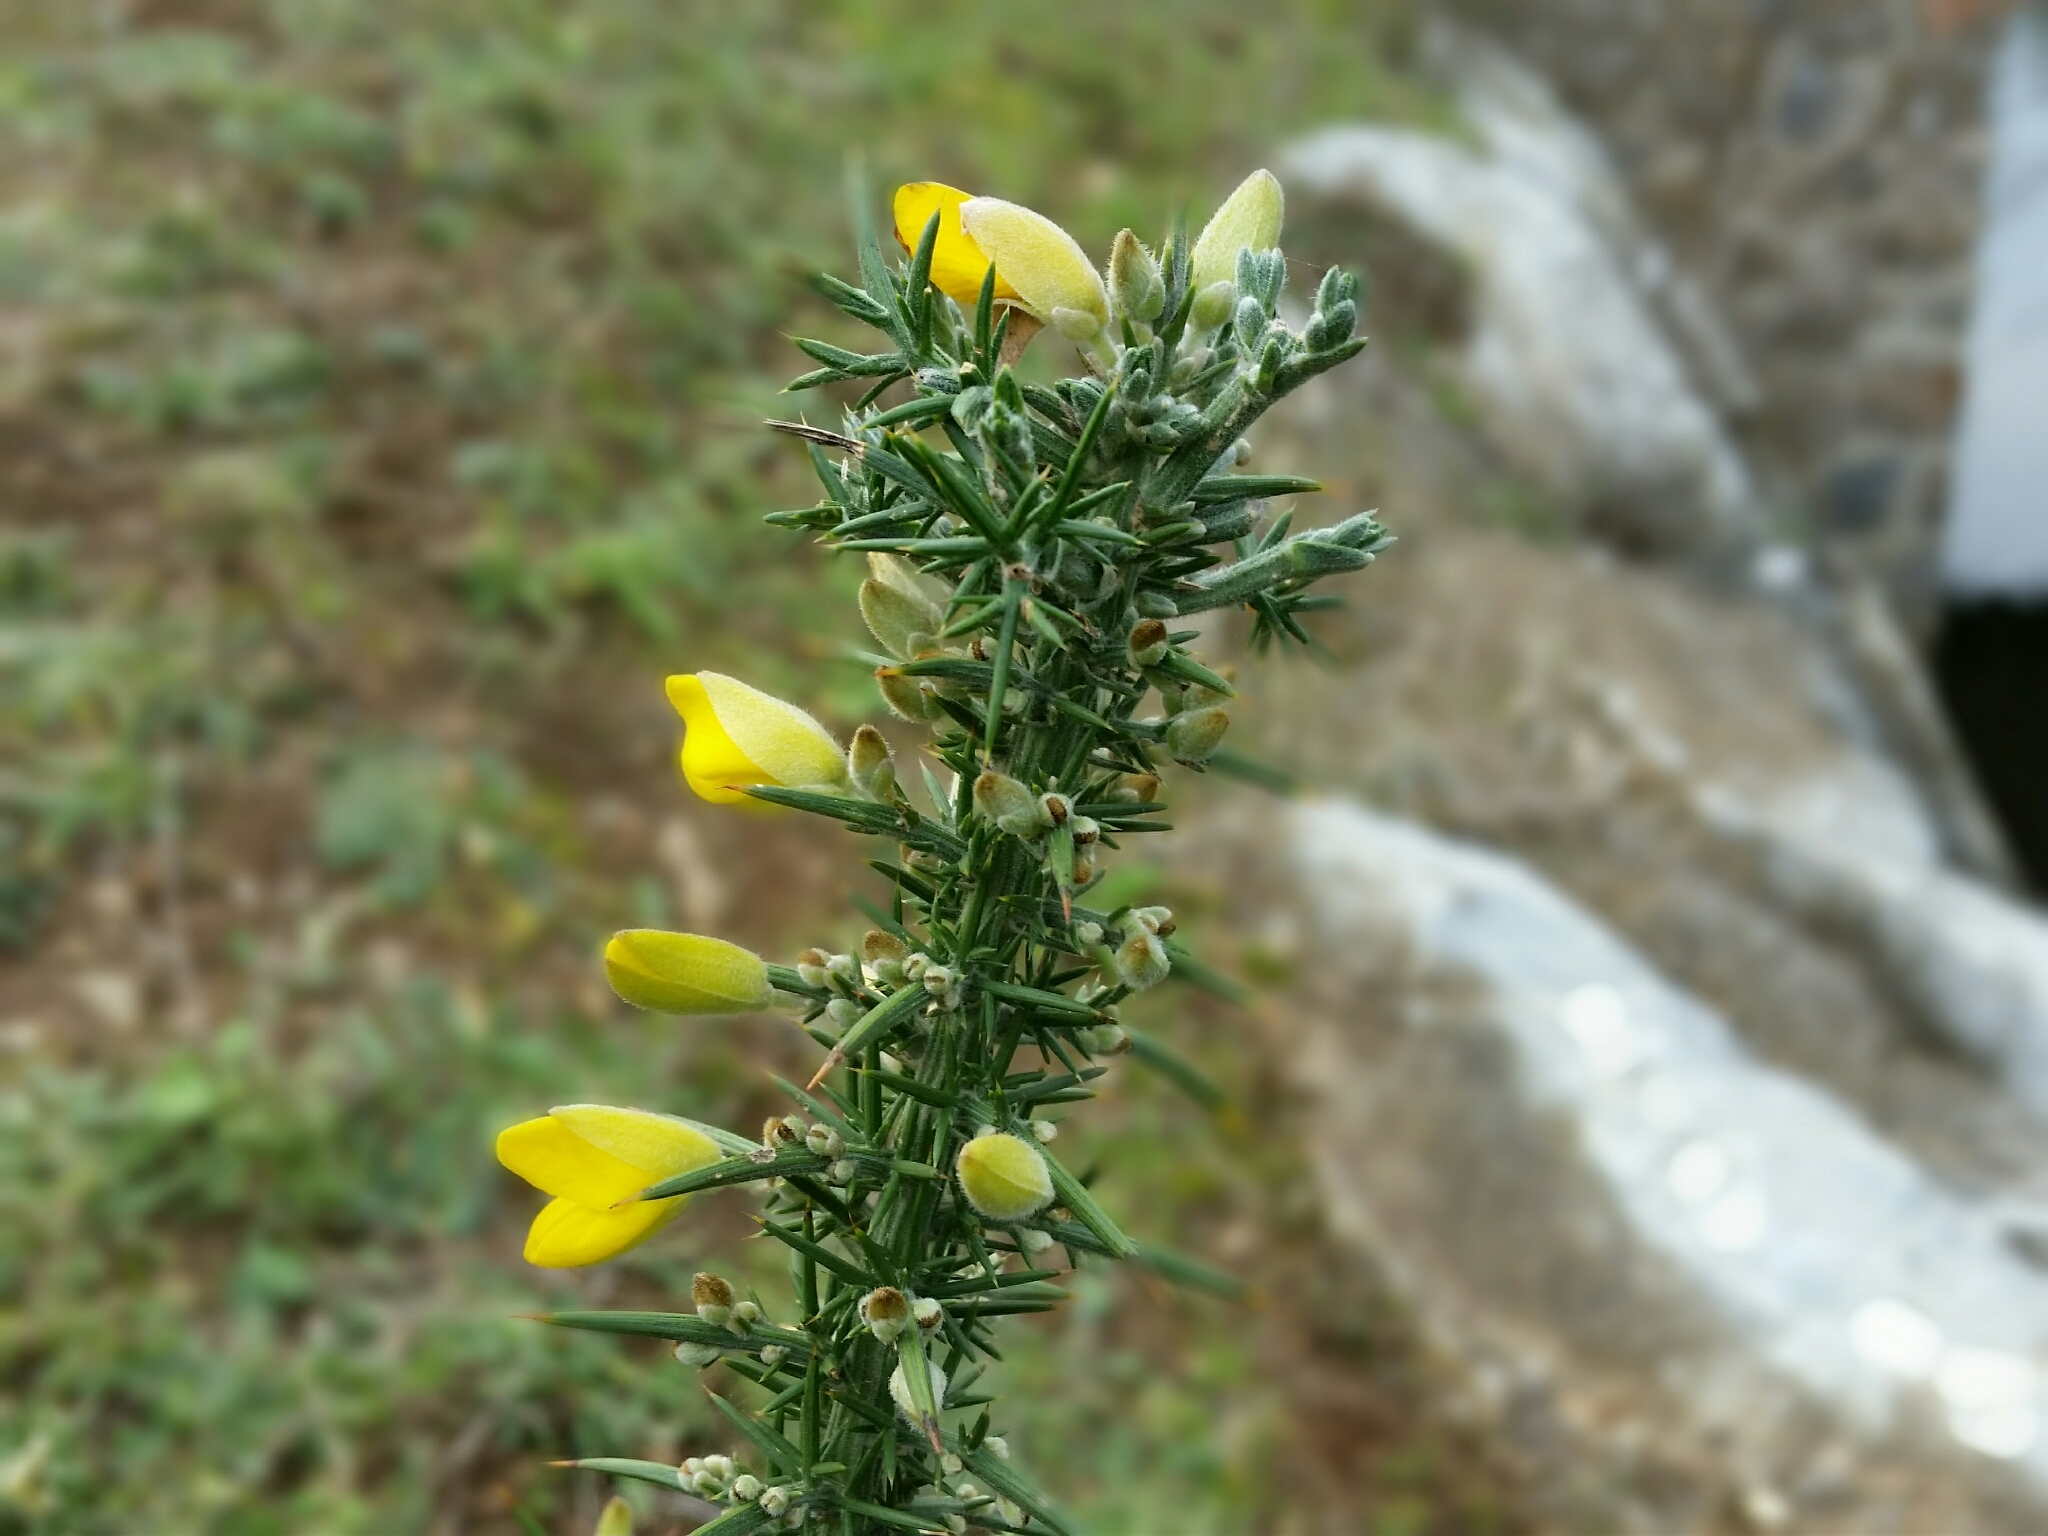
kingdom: Plantae
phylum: Tracheophyta
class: Magnoliopsida
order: Fabales
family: Fabaceae
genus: Ulex
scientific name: Ulex europaeus
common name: Common gorse
